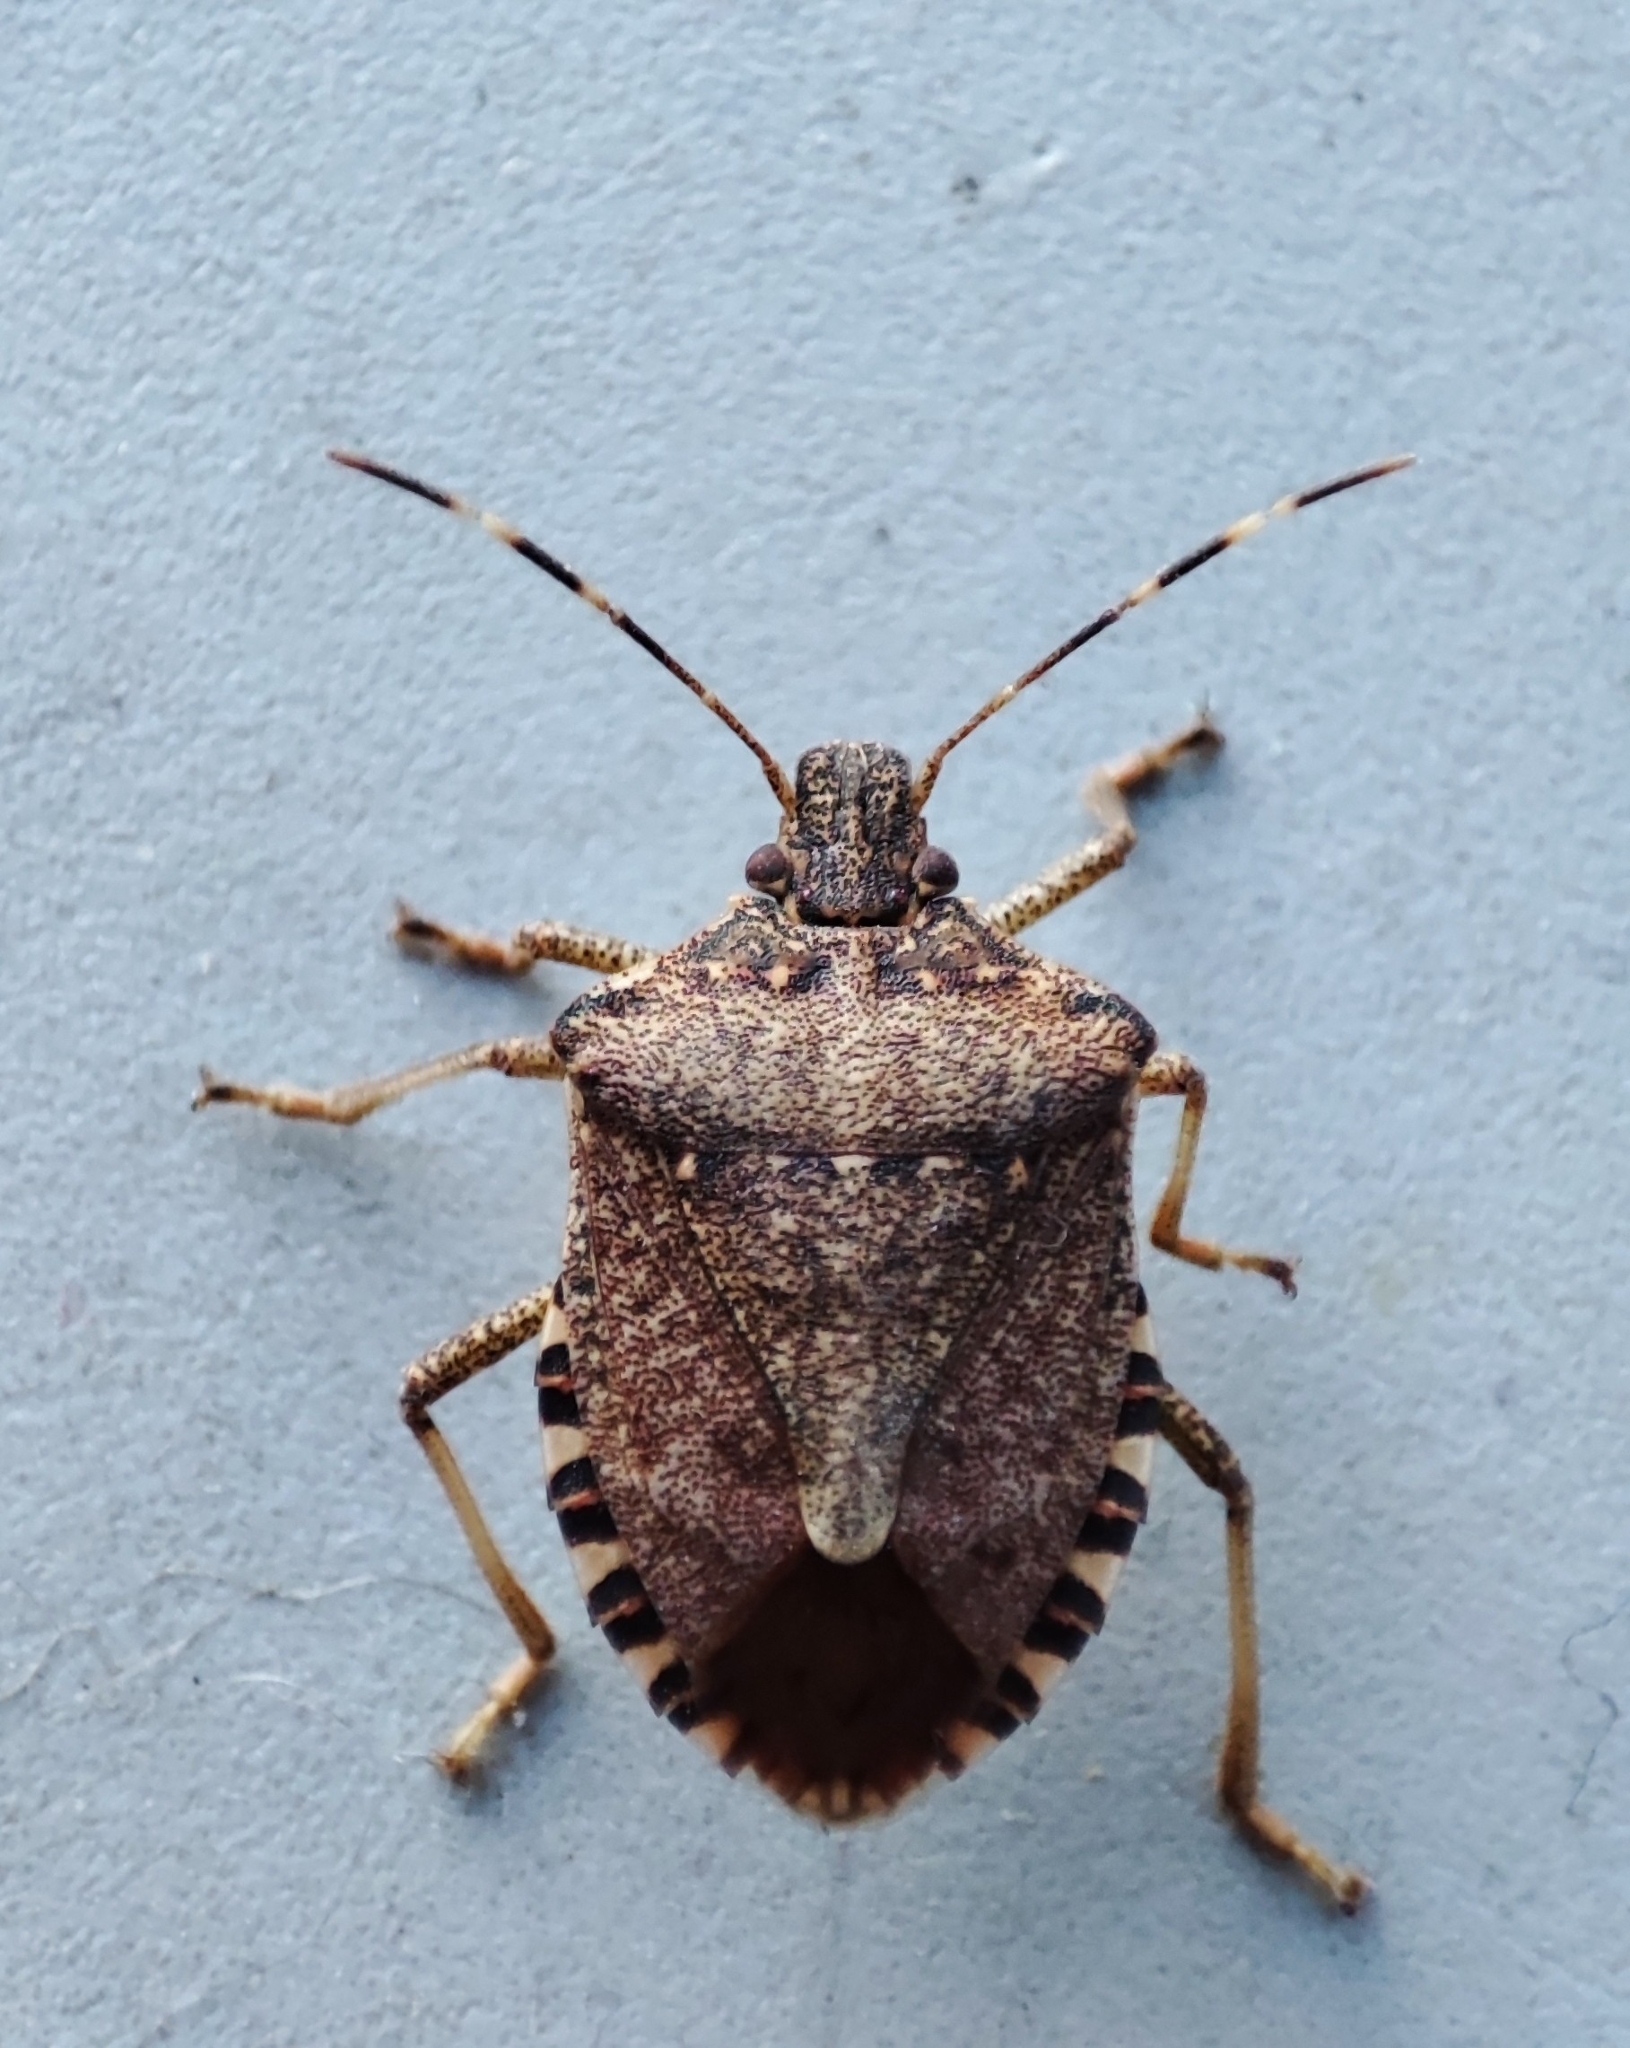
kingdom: Animalia
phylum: Arthropoda
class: Insecta
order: Hemiptera
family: Pentatomidae
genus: Halyomorpha
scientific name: Halyomorpha halys
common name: Brown marmorated stink bug
